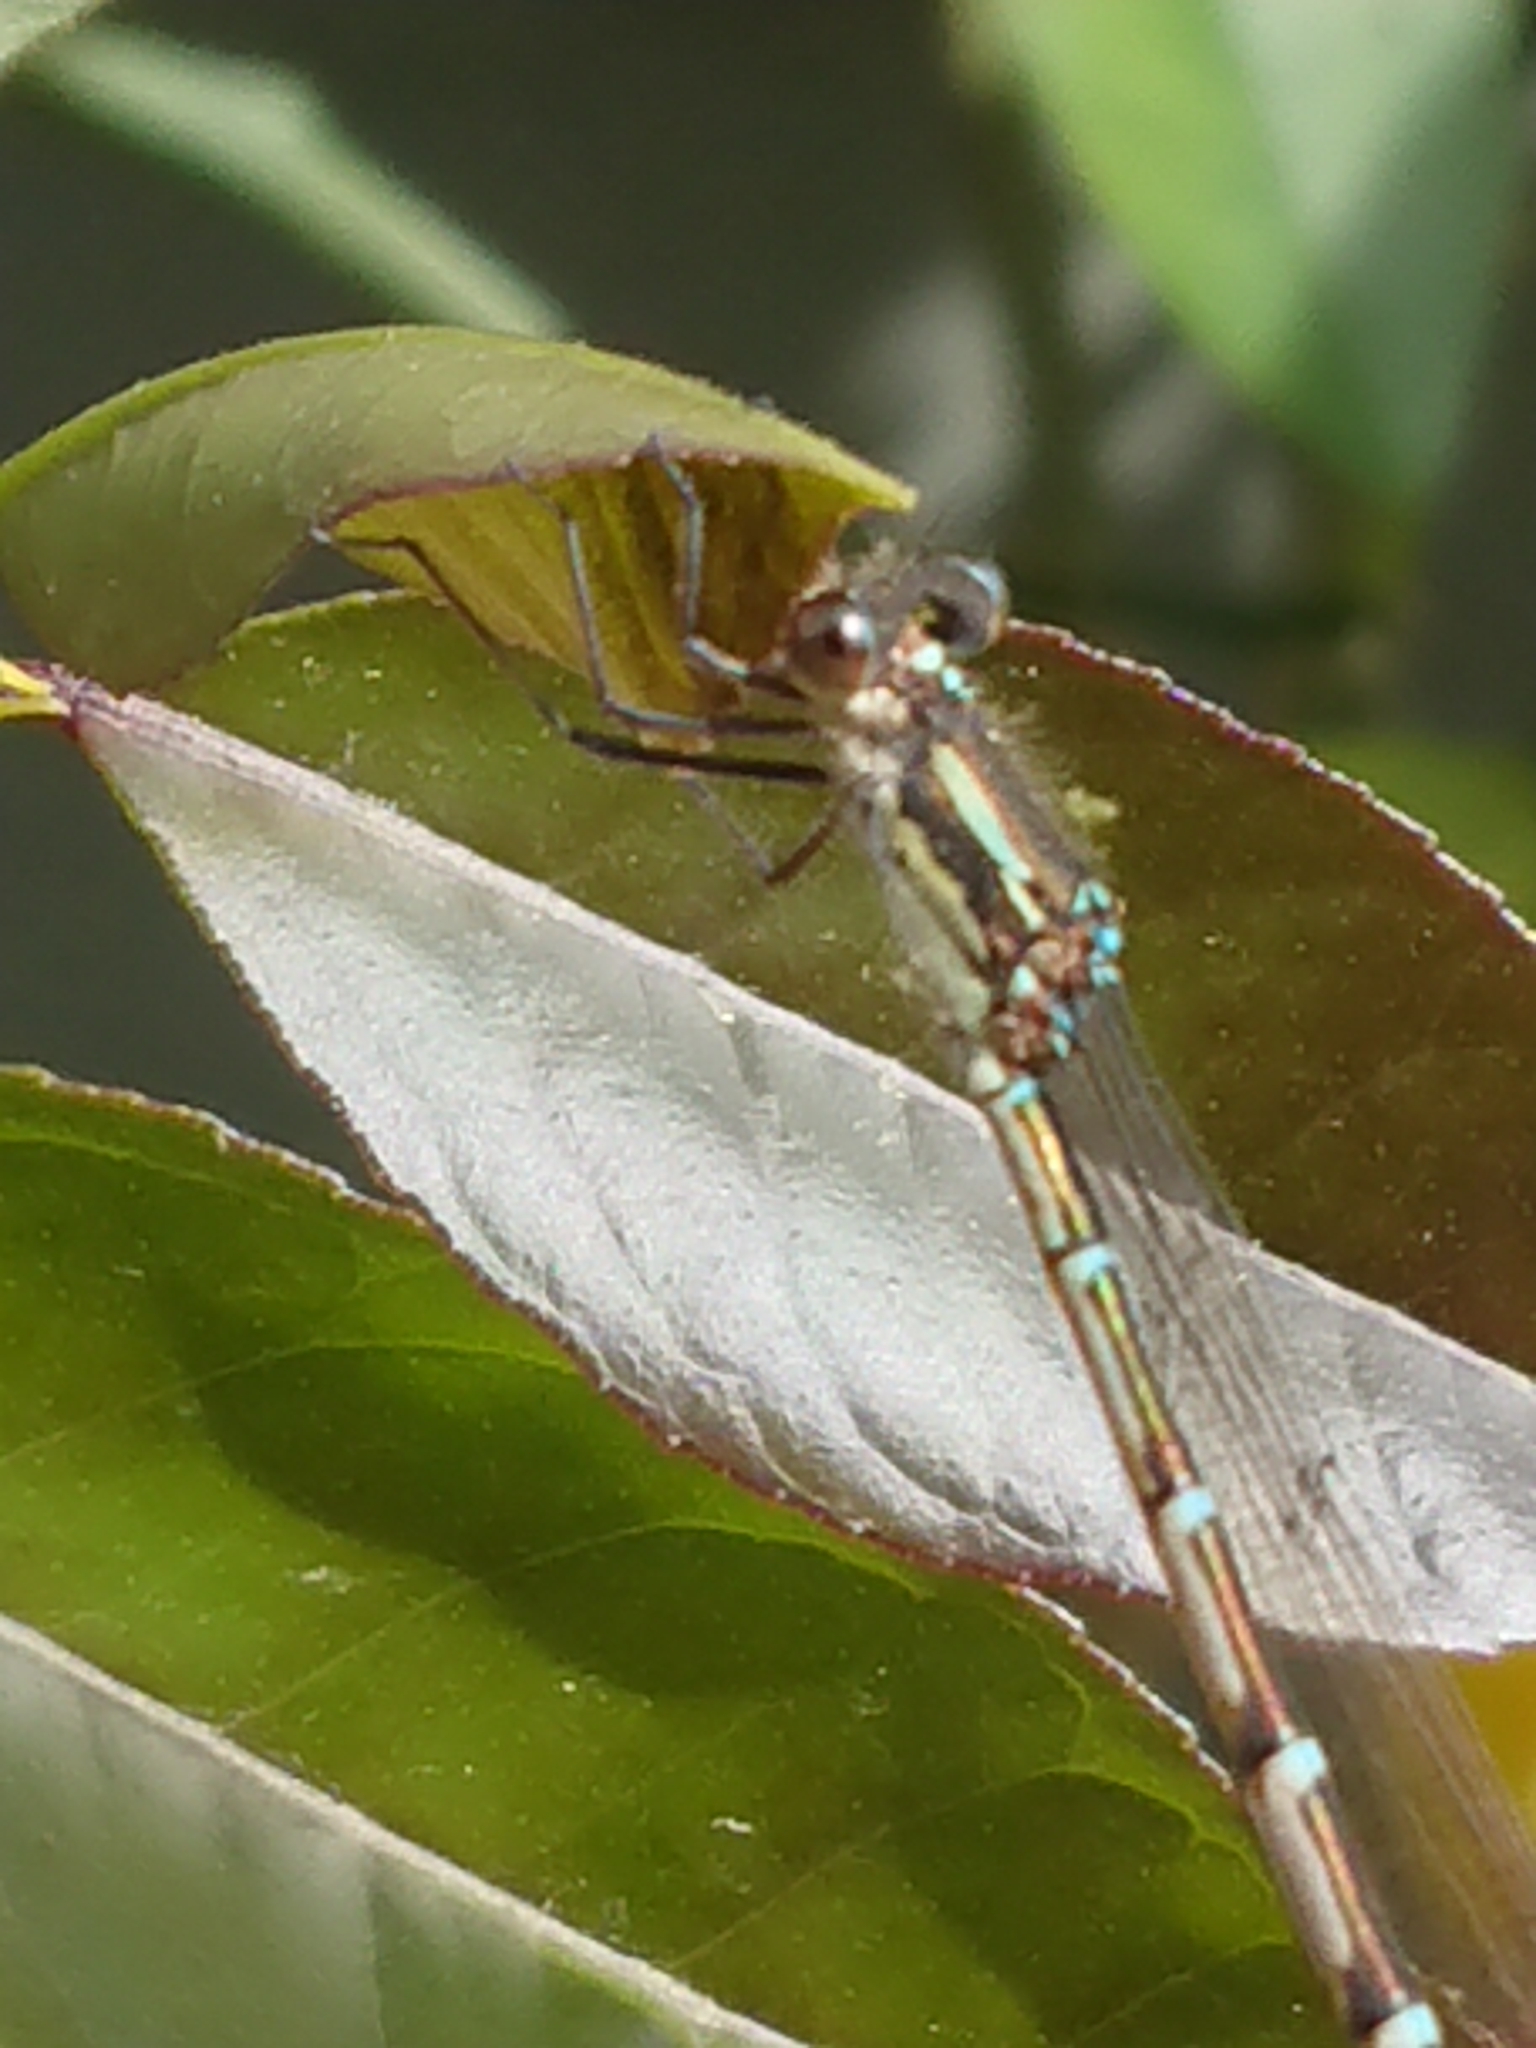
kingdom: Animalia
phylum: Arthropoda
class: Insecta
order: Odonata
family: Lestidae
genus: Austrolestes
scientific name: Austrolestes colensonis
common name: Blue damselfly
